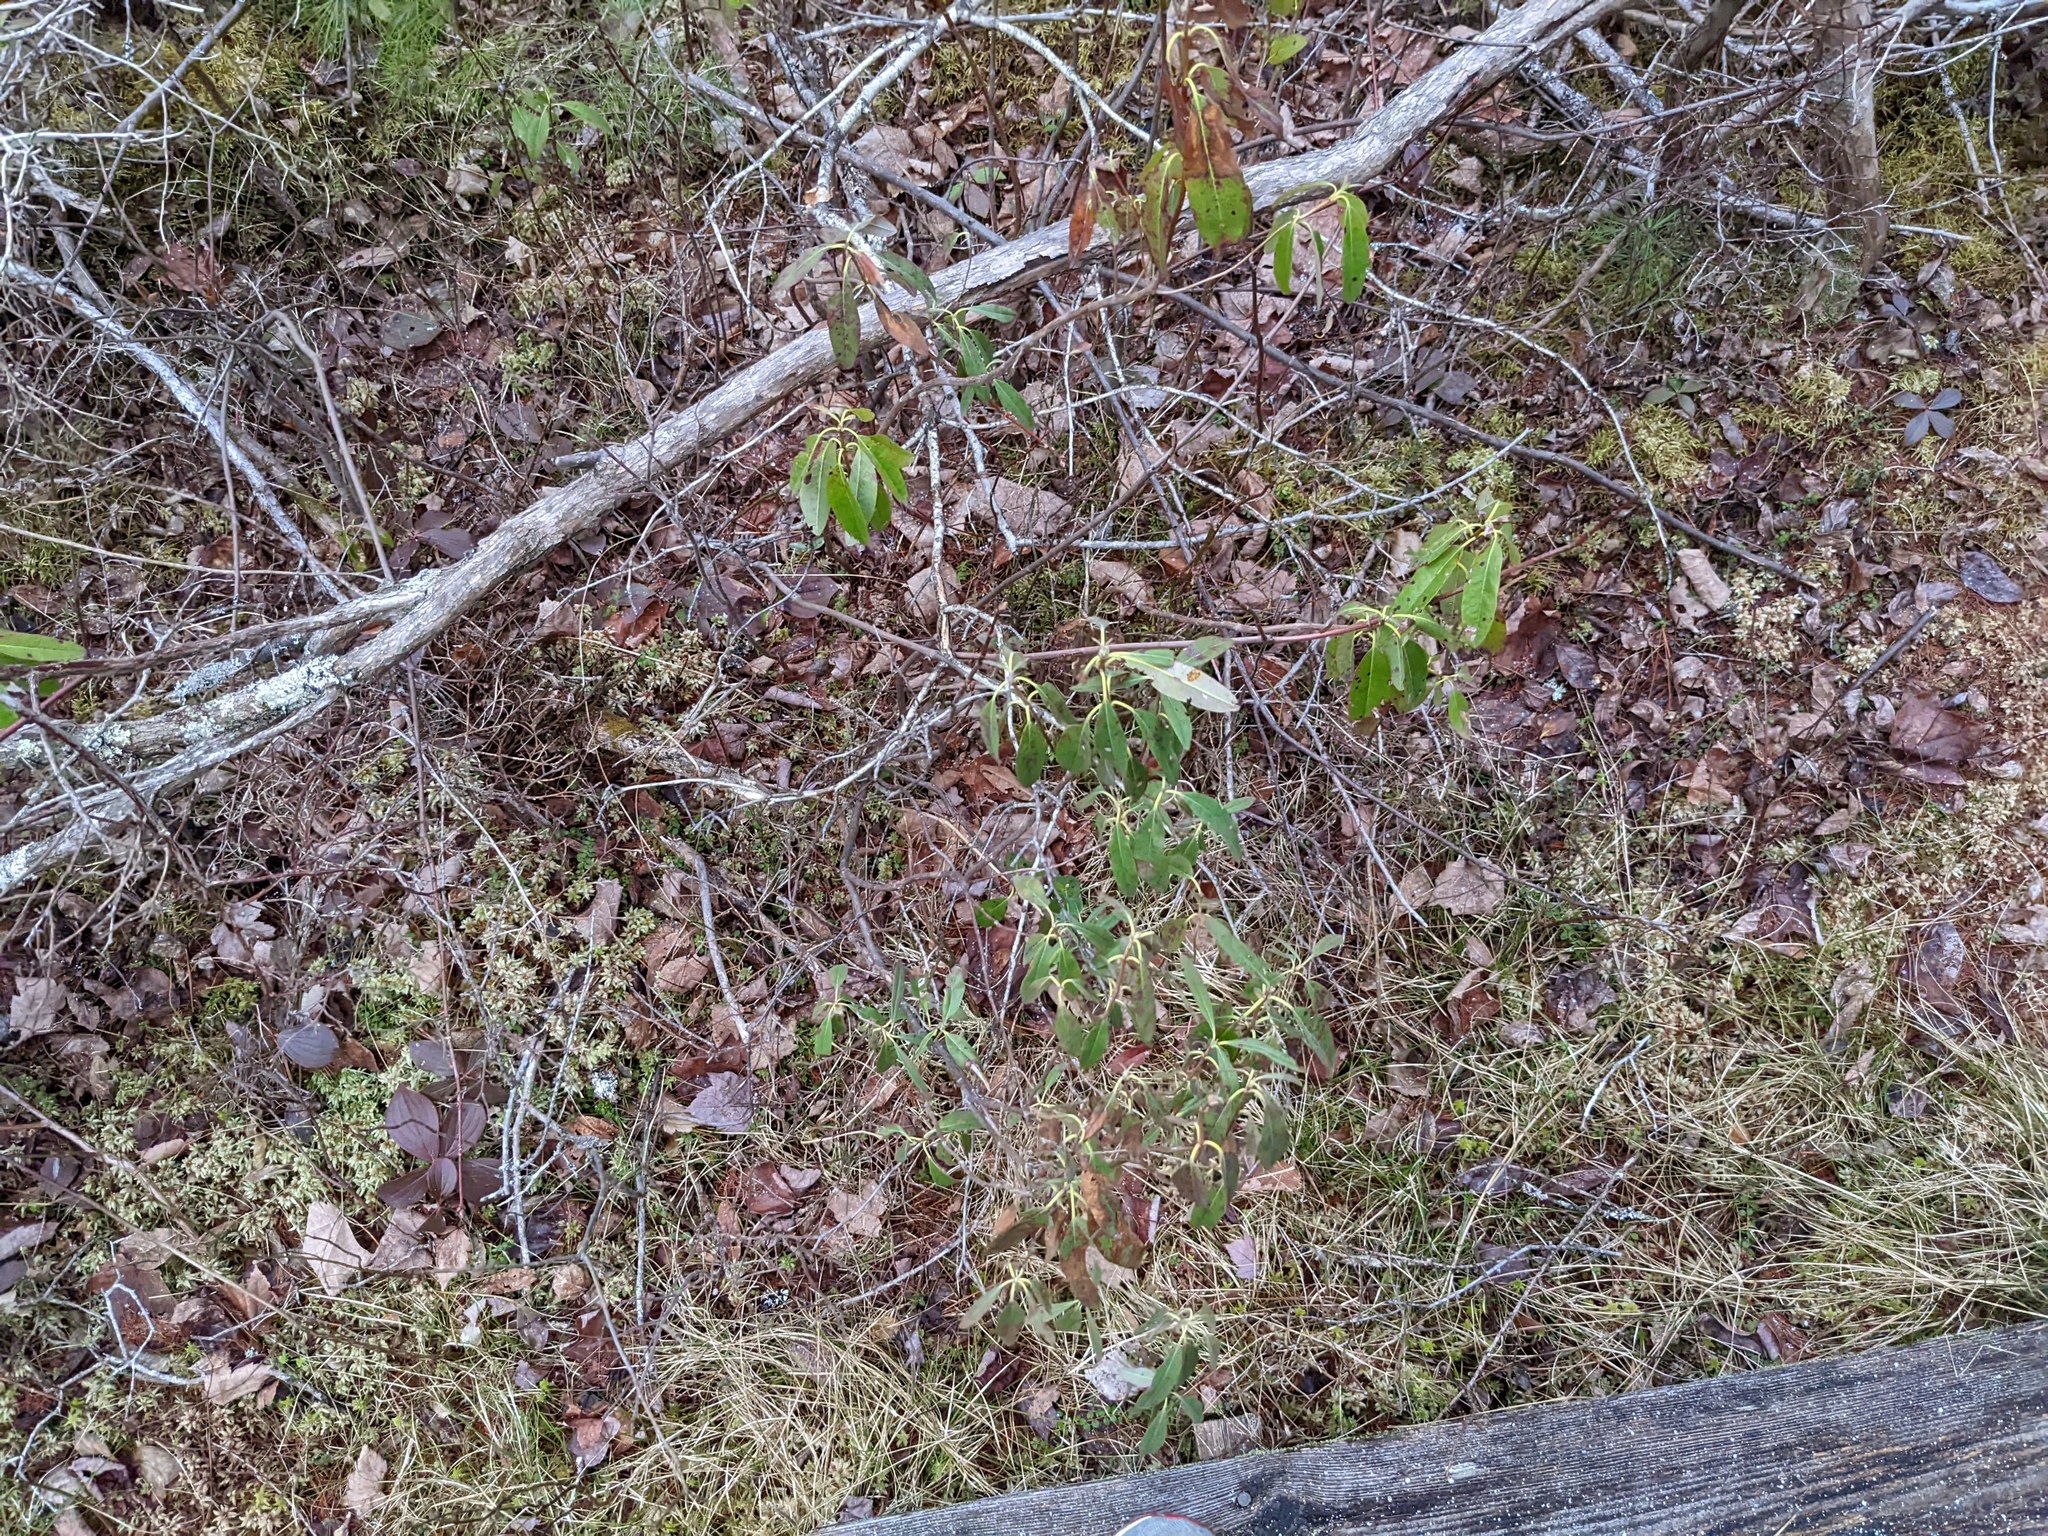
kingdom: Plantae
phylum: Tracheophyta
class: Magnoliopsida
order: Ericales
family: Ericaceae
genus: Kalmia
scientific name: Kalmia angustifolia
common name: Sheep-laurel
